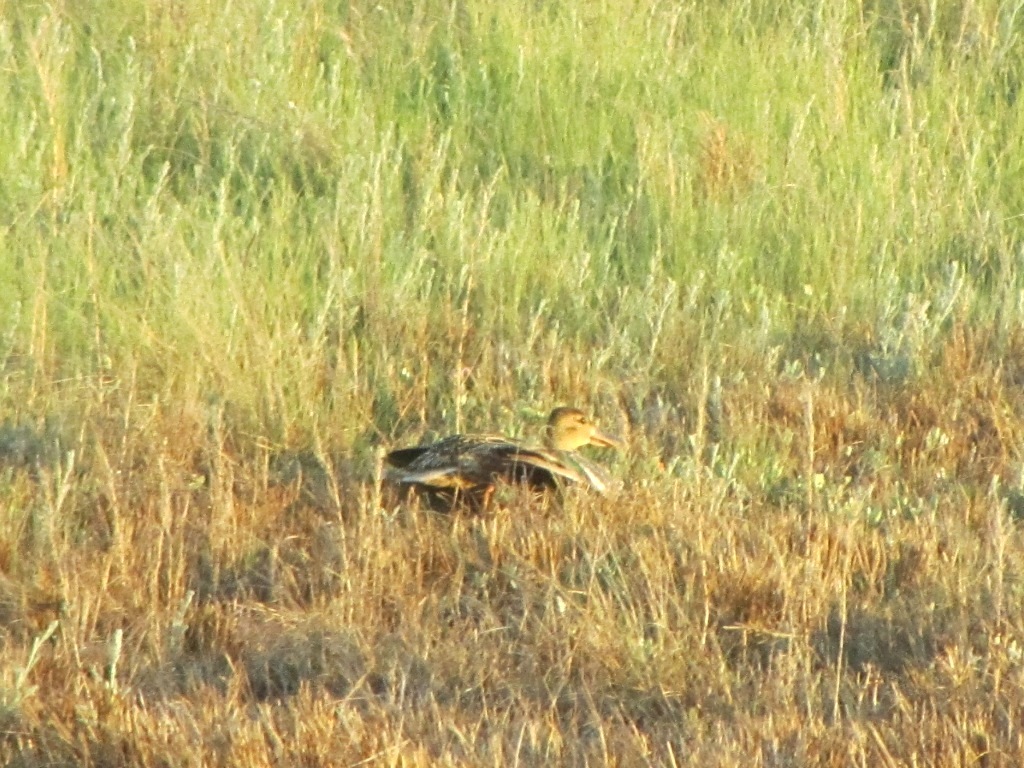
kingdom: Animalia
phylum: Chordata
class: Aves
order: Anseriformes
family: Anatidae
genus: Spatula
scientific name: Spatula clypeata
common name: Northern shoveler
